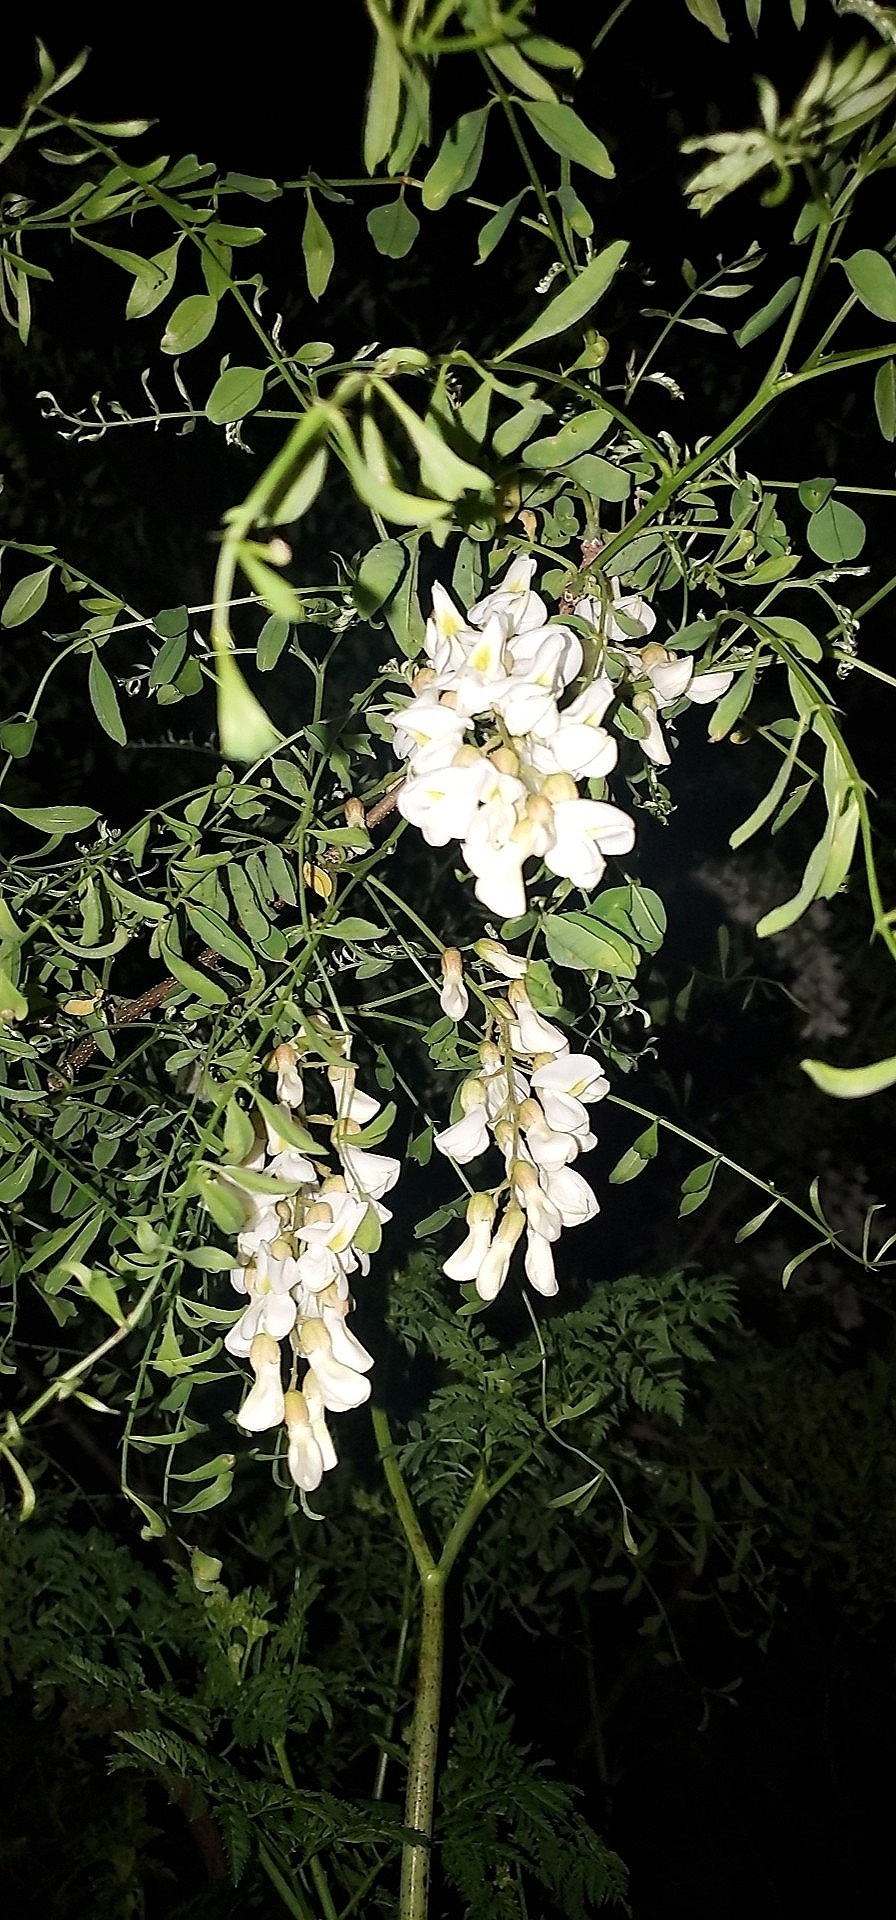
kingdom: Plantae
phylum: Tracheophyta
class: Magnoliopsida
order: Fabales
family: Fabaceae
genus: Robinia
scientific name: Robinia pseudoacacia
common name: Black locust
